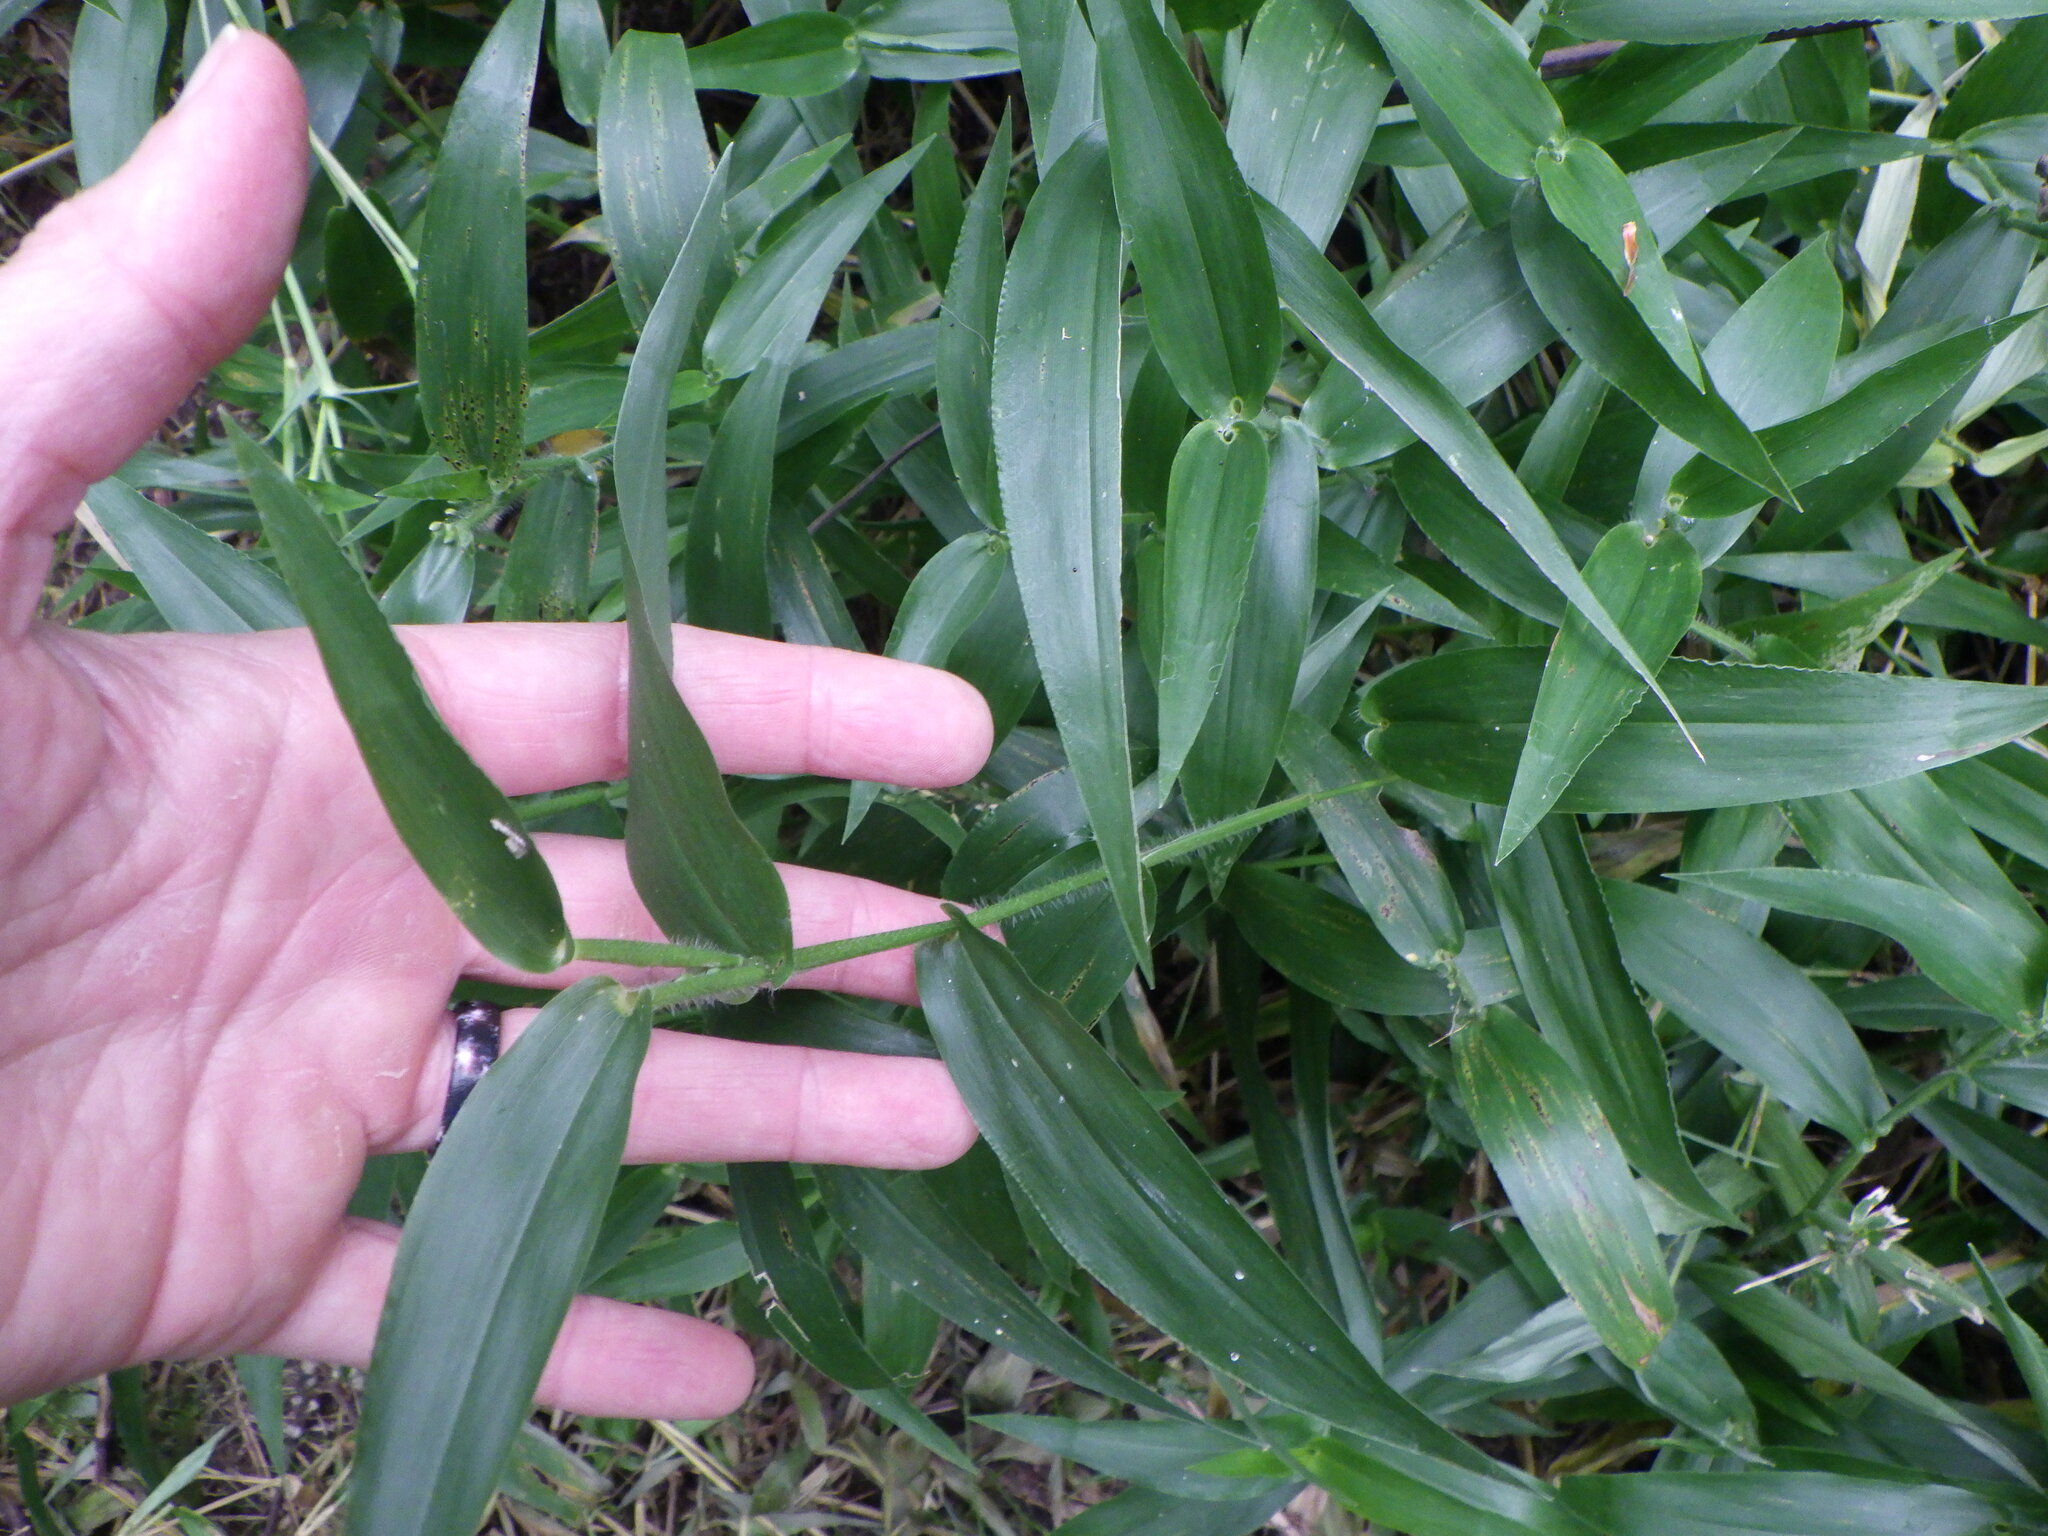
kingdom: Plantae
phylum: Tracheophyta
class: Liliopsida
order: Poales
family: Poaceae
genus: Dichanthelium
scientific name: Dichanthelium clandestinum
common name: Deer-tongue grass
